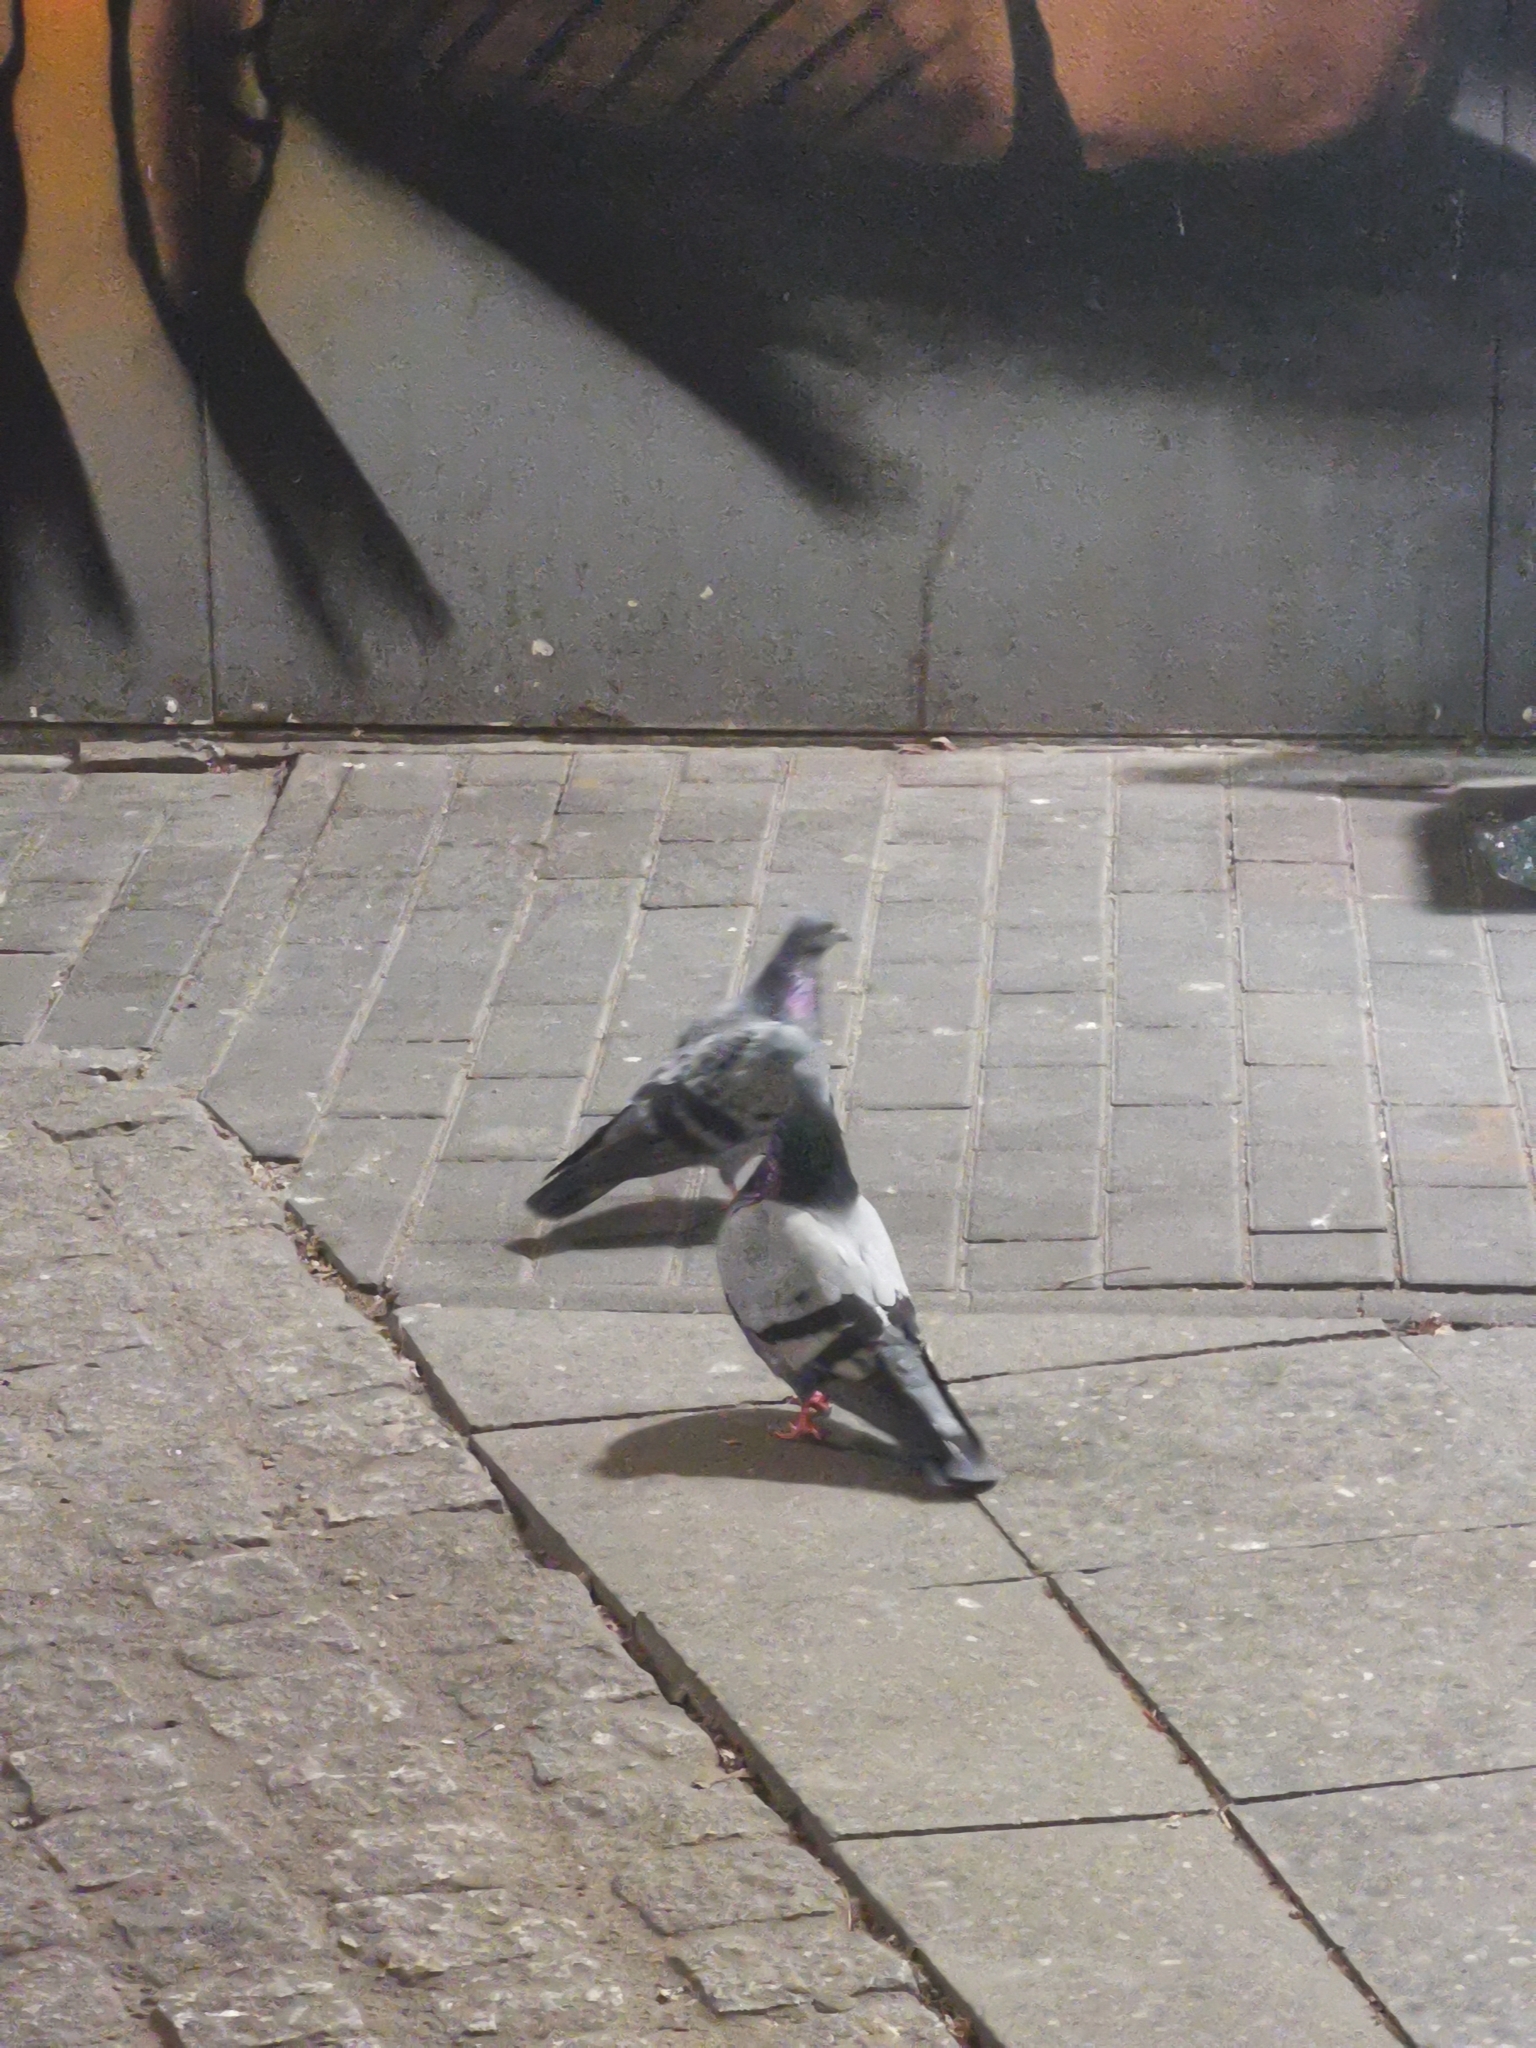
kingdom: Animalia
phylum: Chordata
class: Aves
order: Columbiformes
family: Columbidae
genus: Columba
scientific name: Columba livia
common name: Rock pigeon
